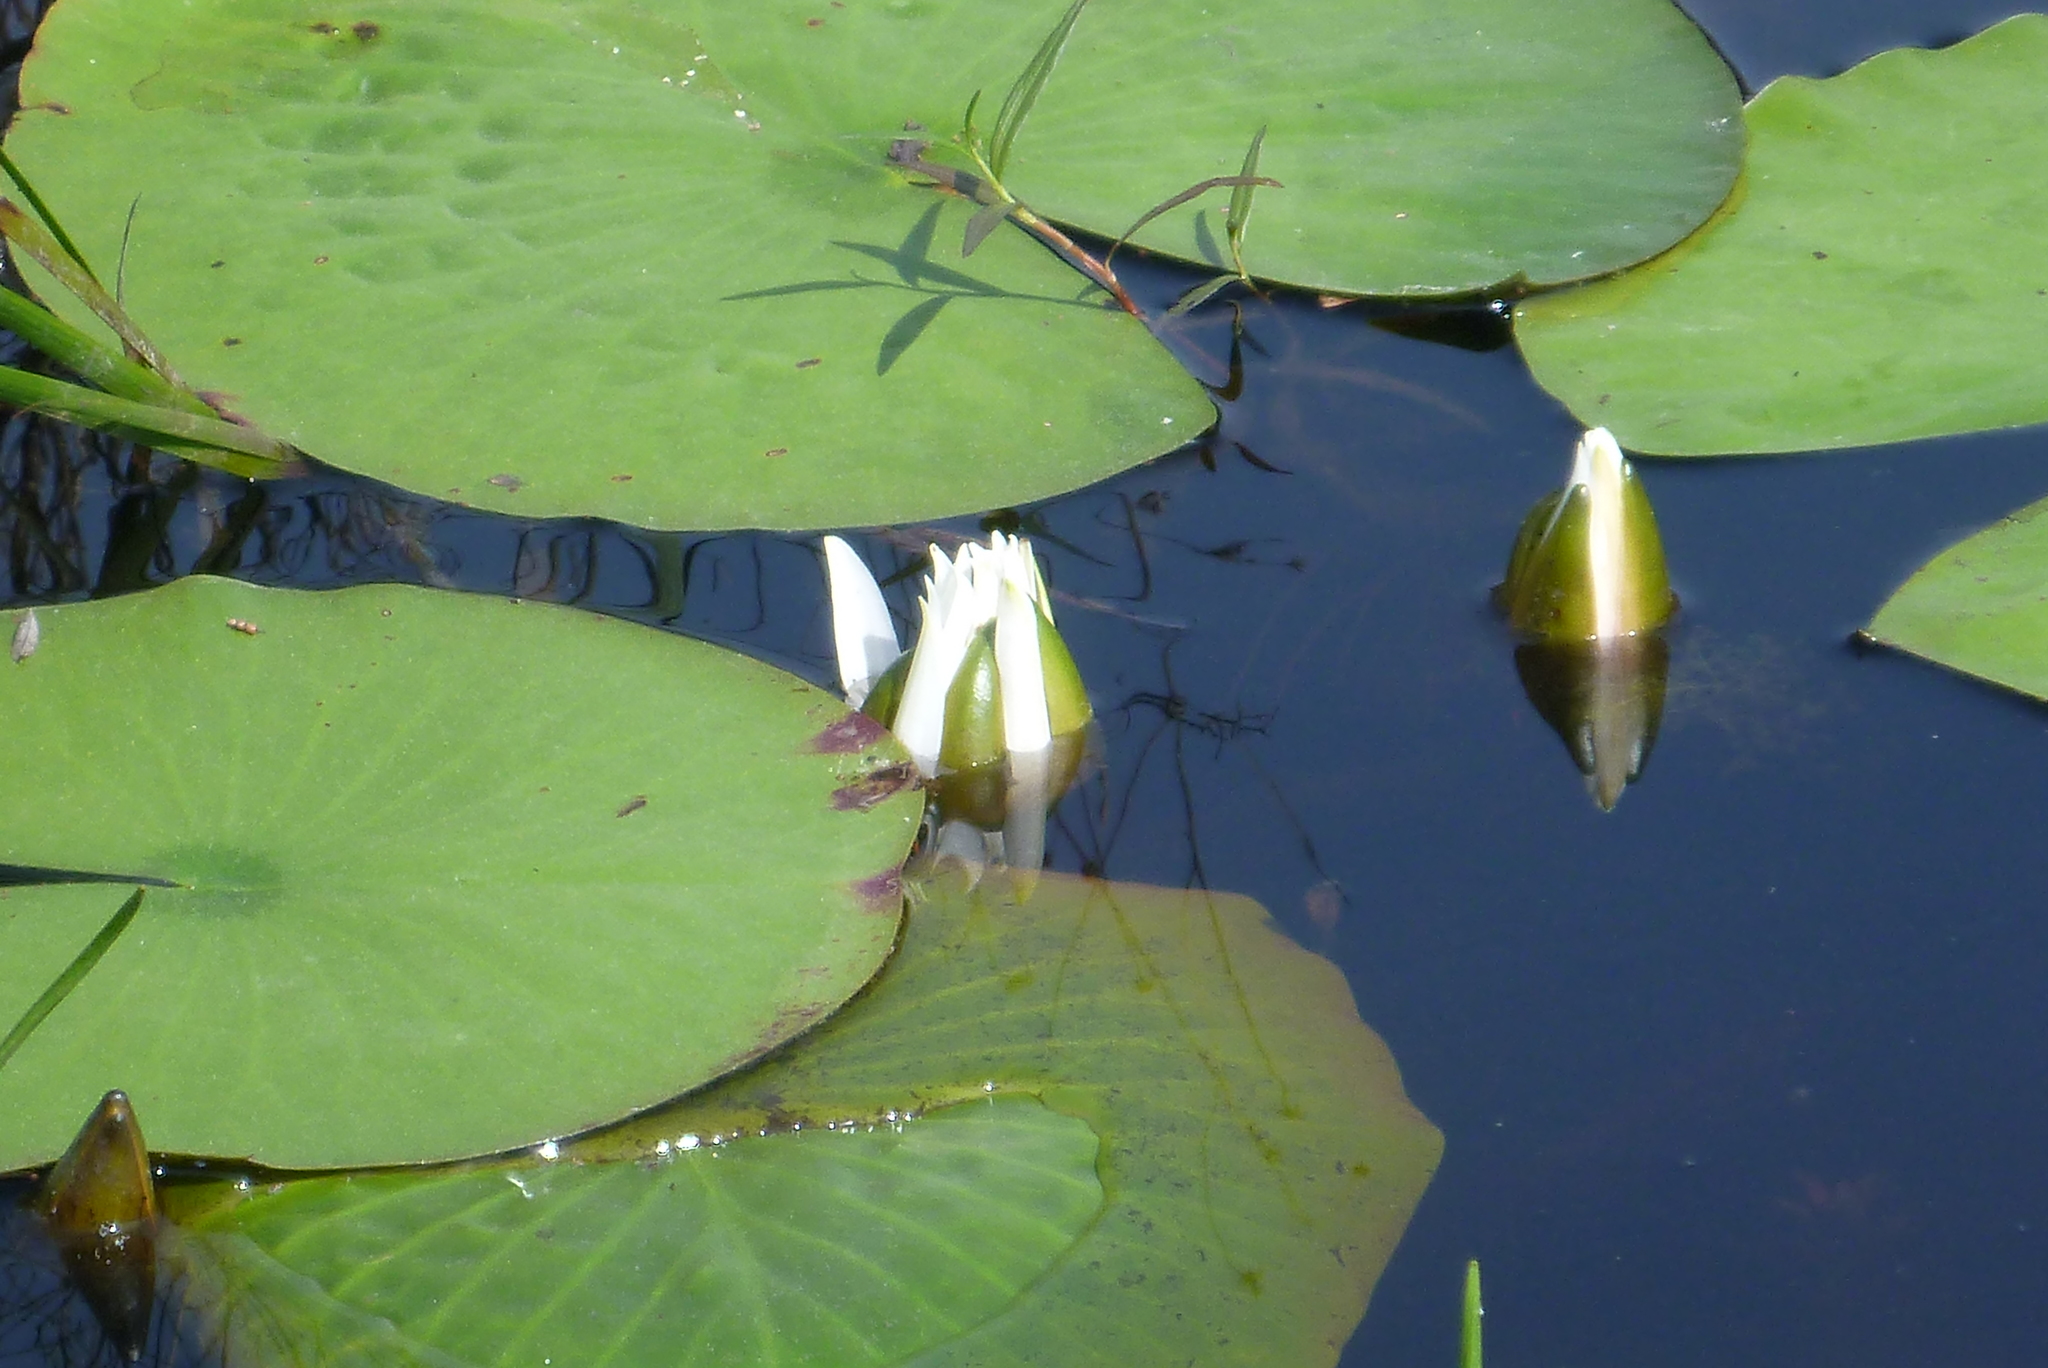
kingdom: Plantae
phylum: Tracheophyta
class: Magnoliopsida
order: Nymphaeales
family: Nymphaeaceae
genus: Nymphaea
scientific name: Nymphaea odorata
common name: Fragrant water-lily
